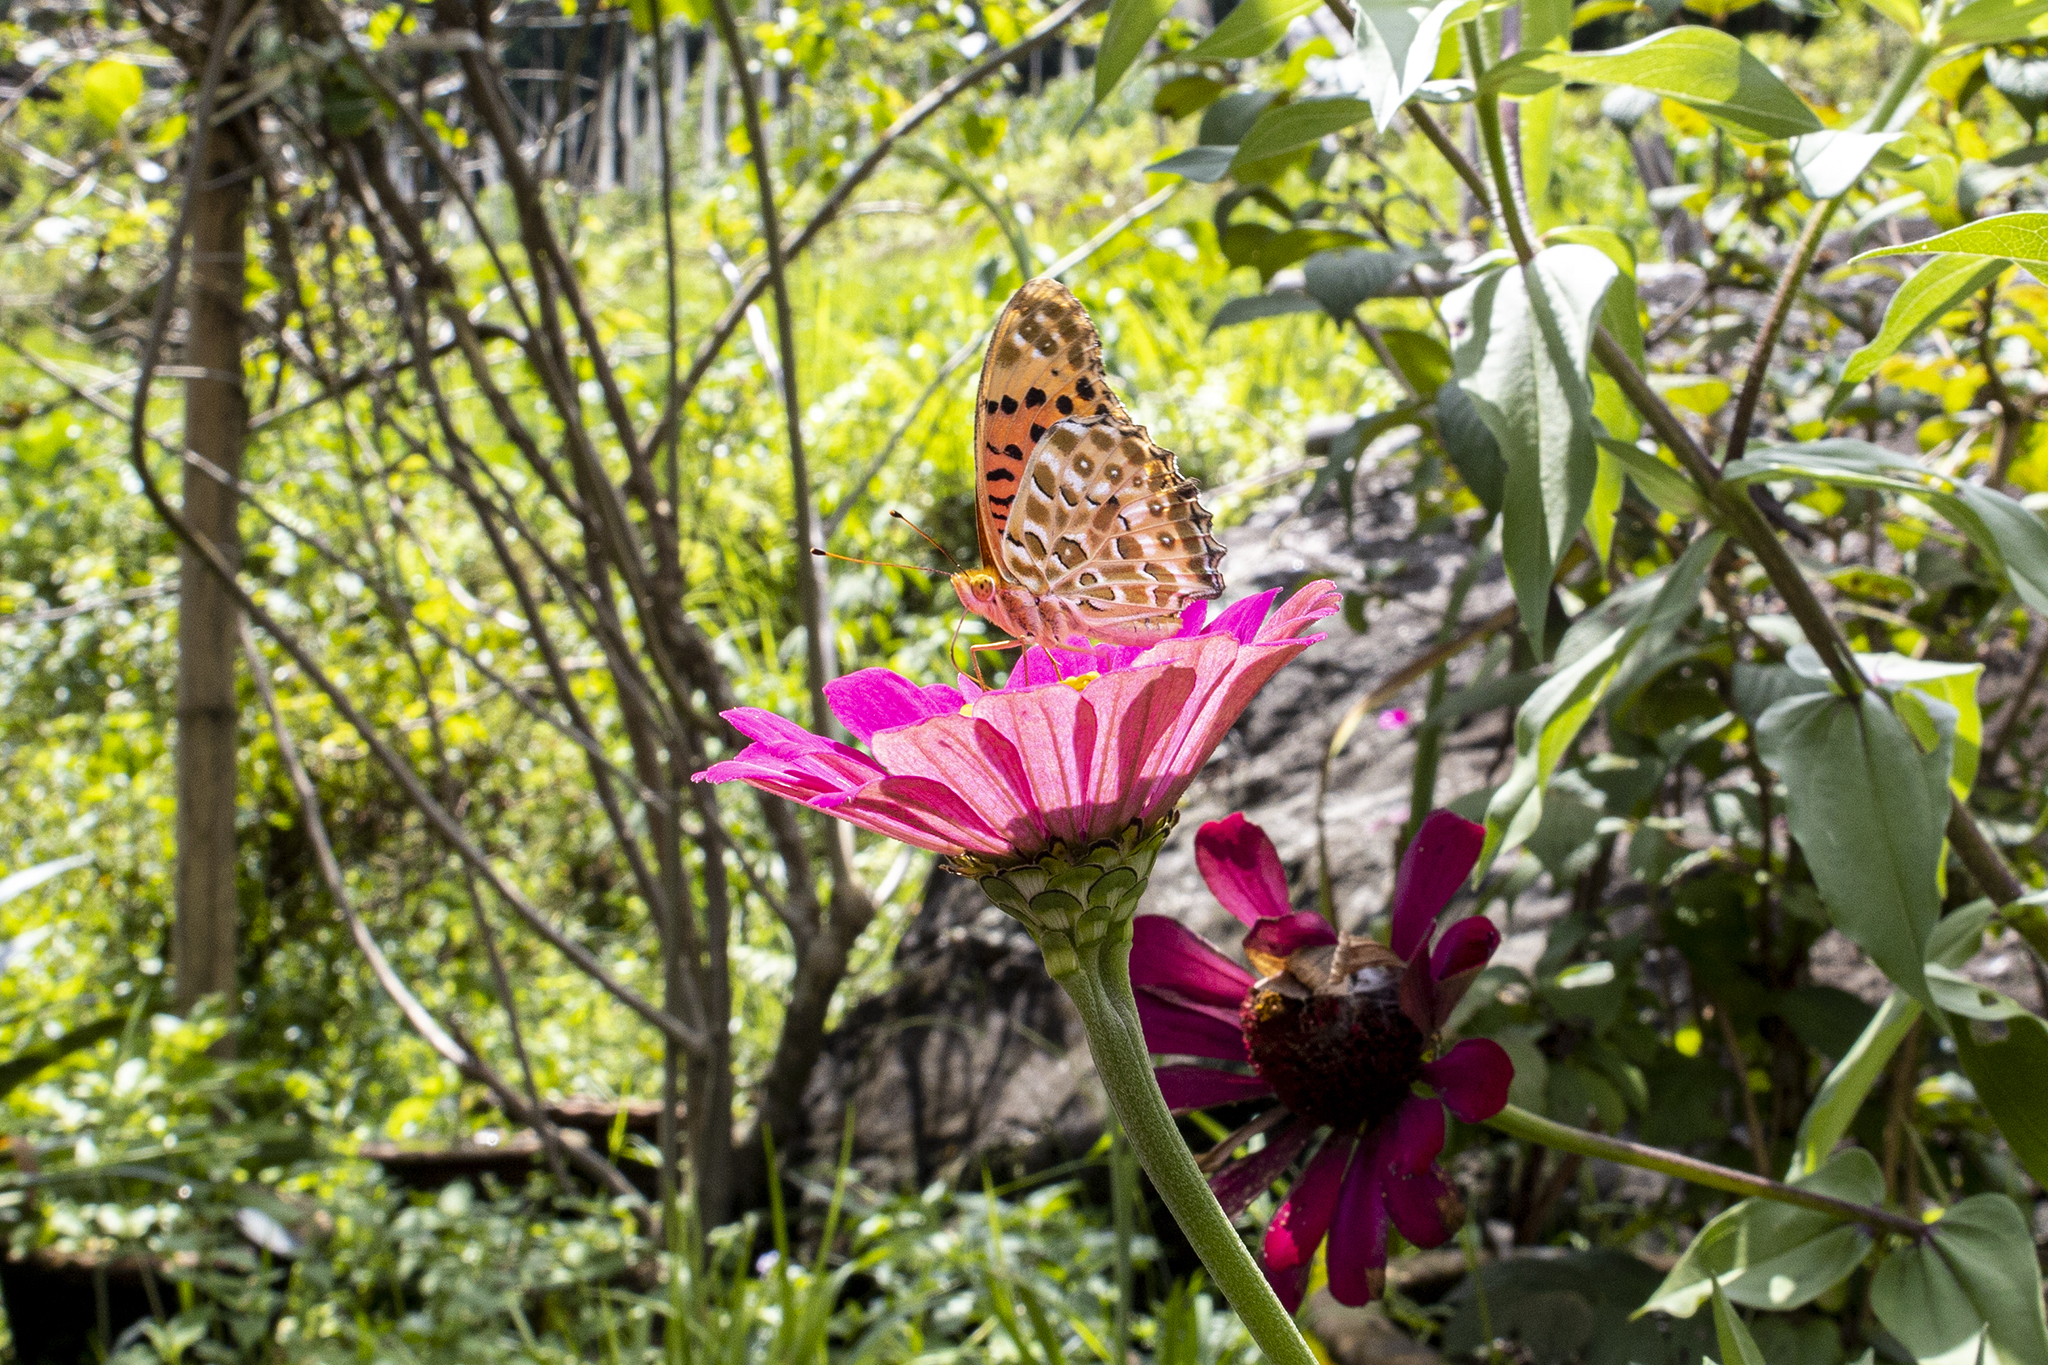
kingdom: Animalia
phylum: Arthropoda
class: Insecta
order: Lepidoptera
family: Nymphalidae
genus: Argynnis
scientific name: Argynnis hyperbius
